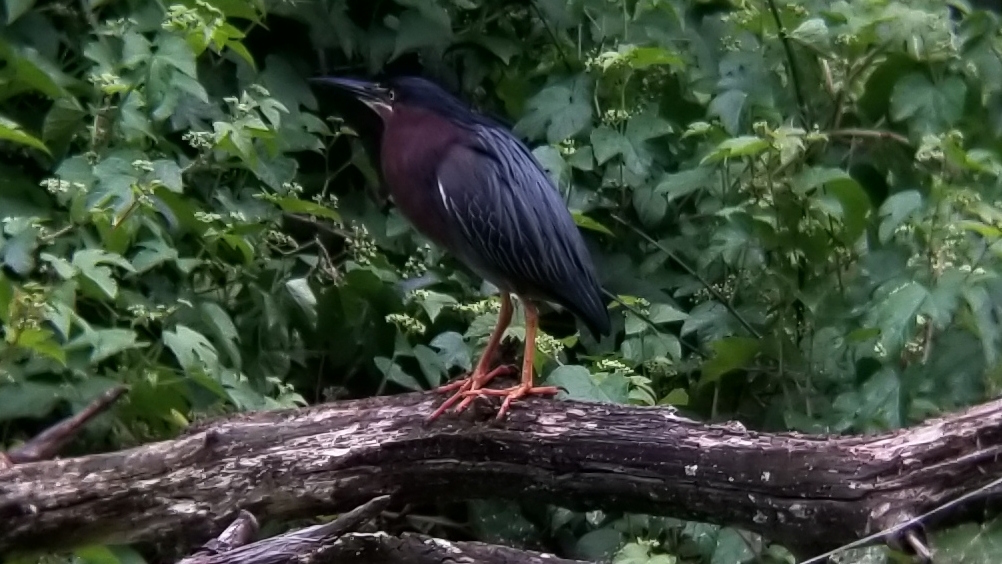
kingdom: Animalia
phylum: Chordata
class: Aves
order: Pelecaniformes
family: Ardeidae
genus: Butorides
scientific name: Butorides virescens
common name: Green heron
